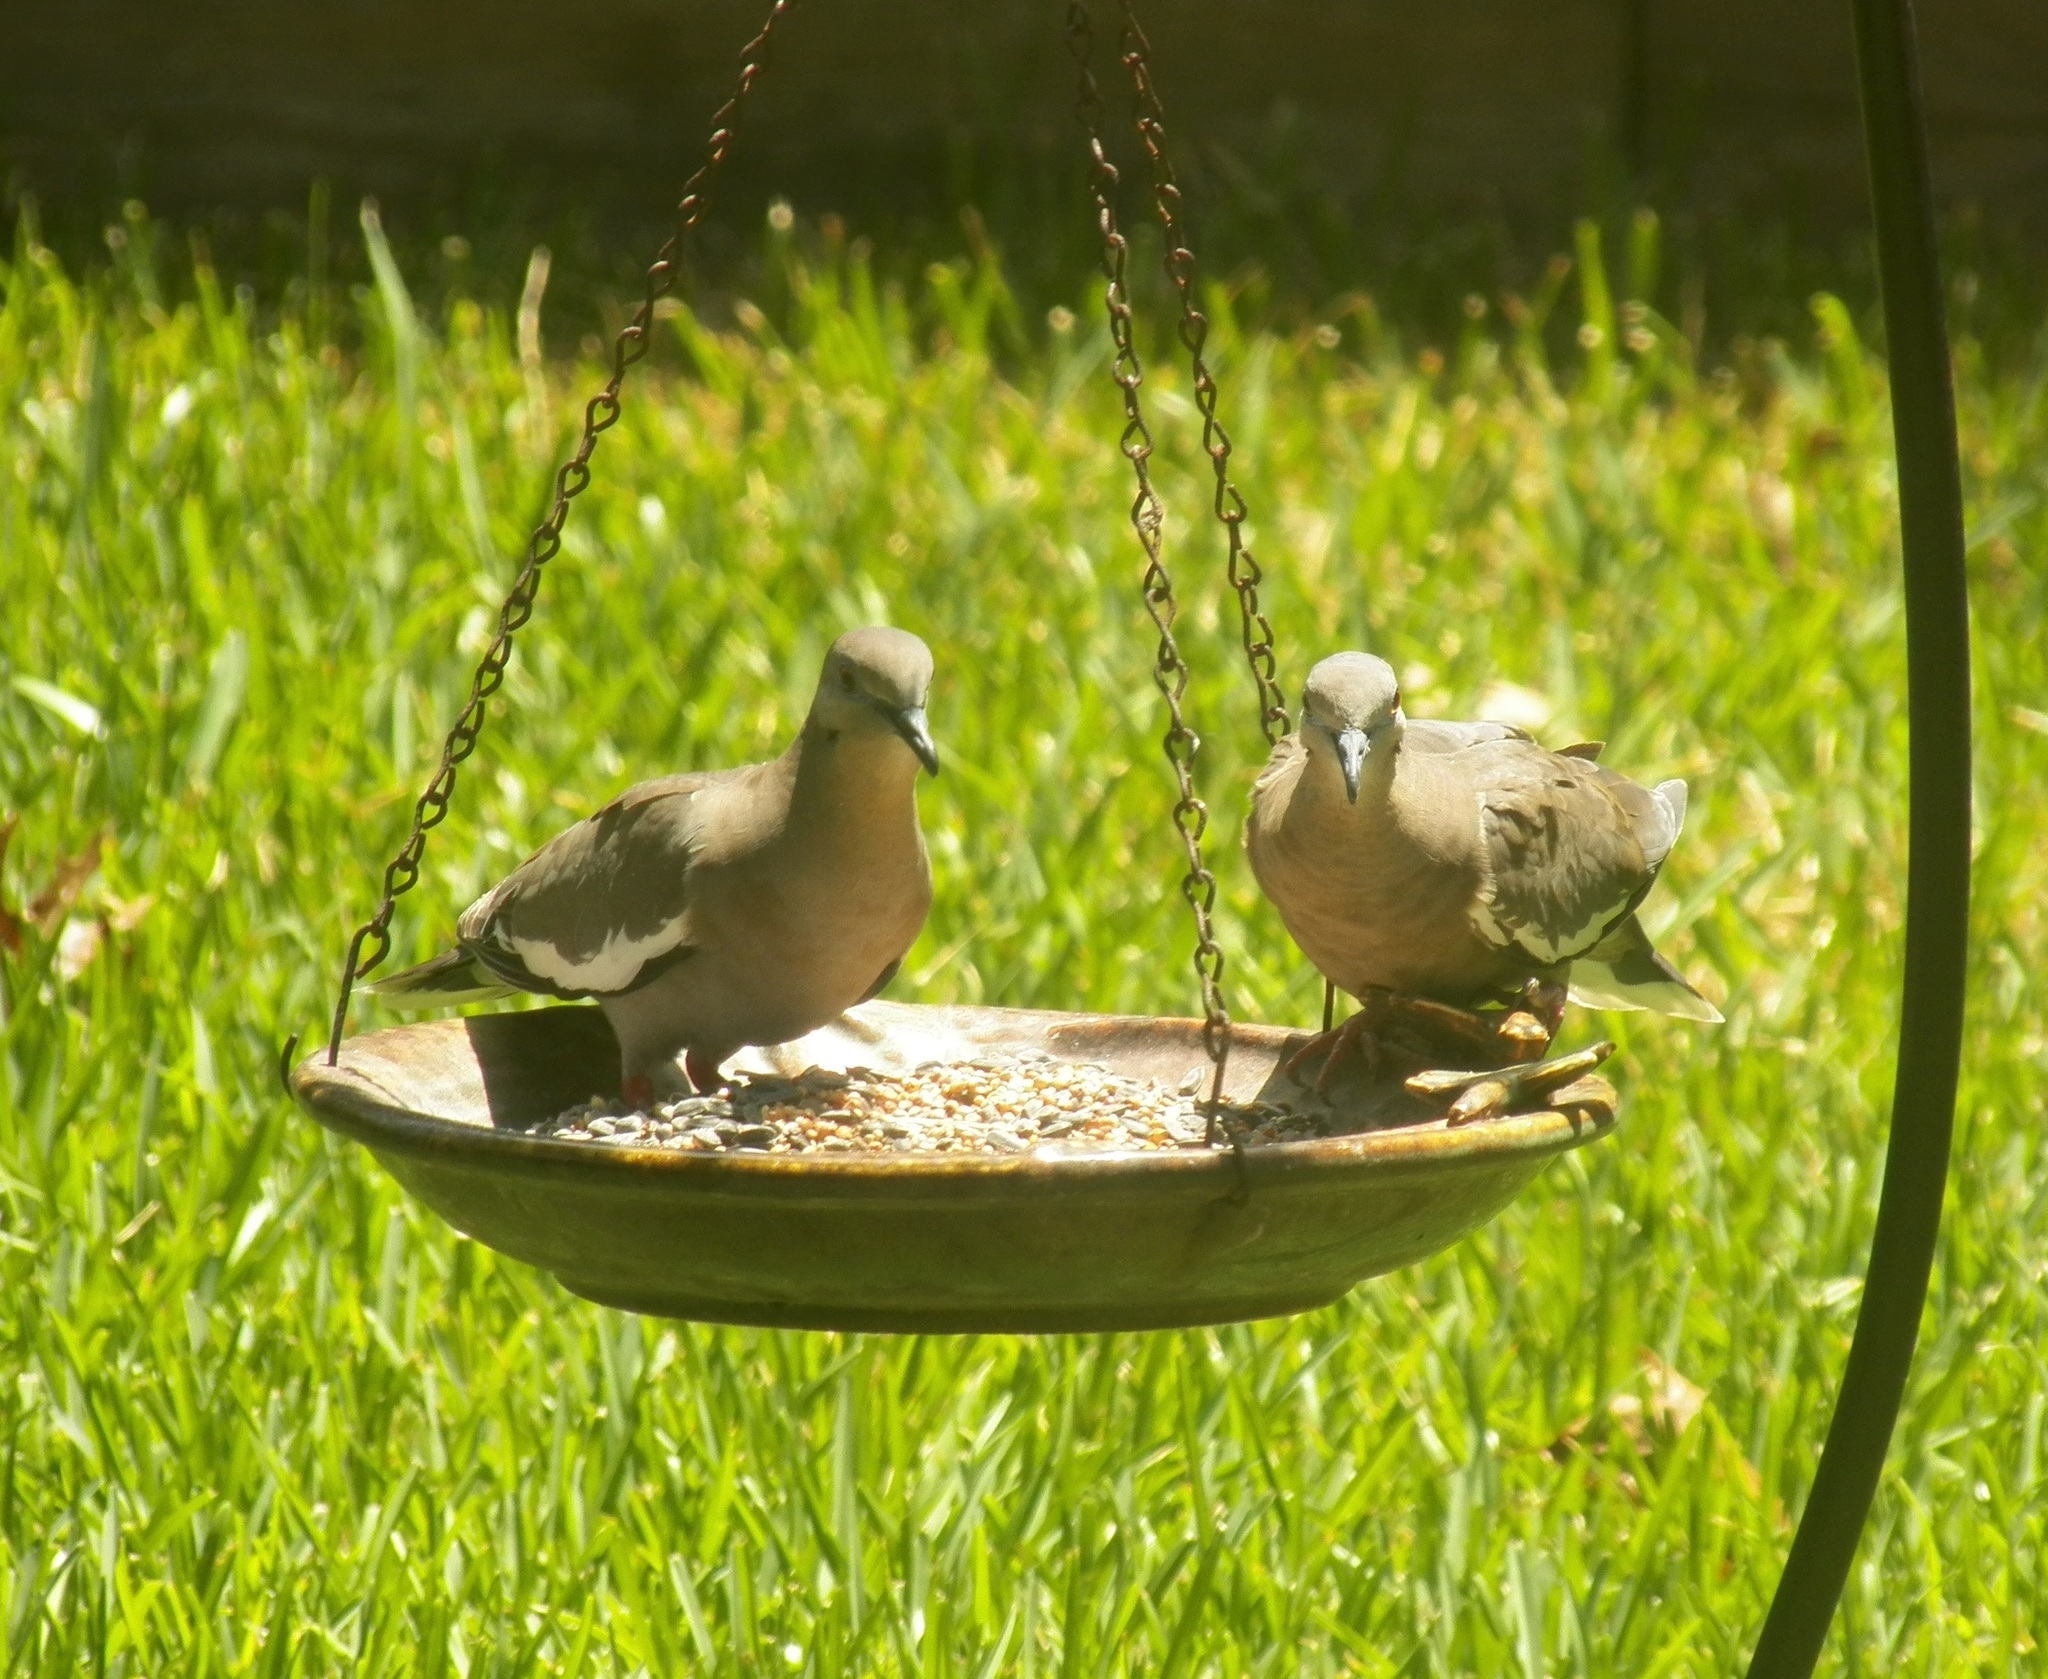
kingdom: Animalia
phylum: Chordata
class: Aves
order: Columbiformes
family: Columbidae
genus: Zenaida
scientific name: Zenaida asiatica
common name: White-winged dove
